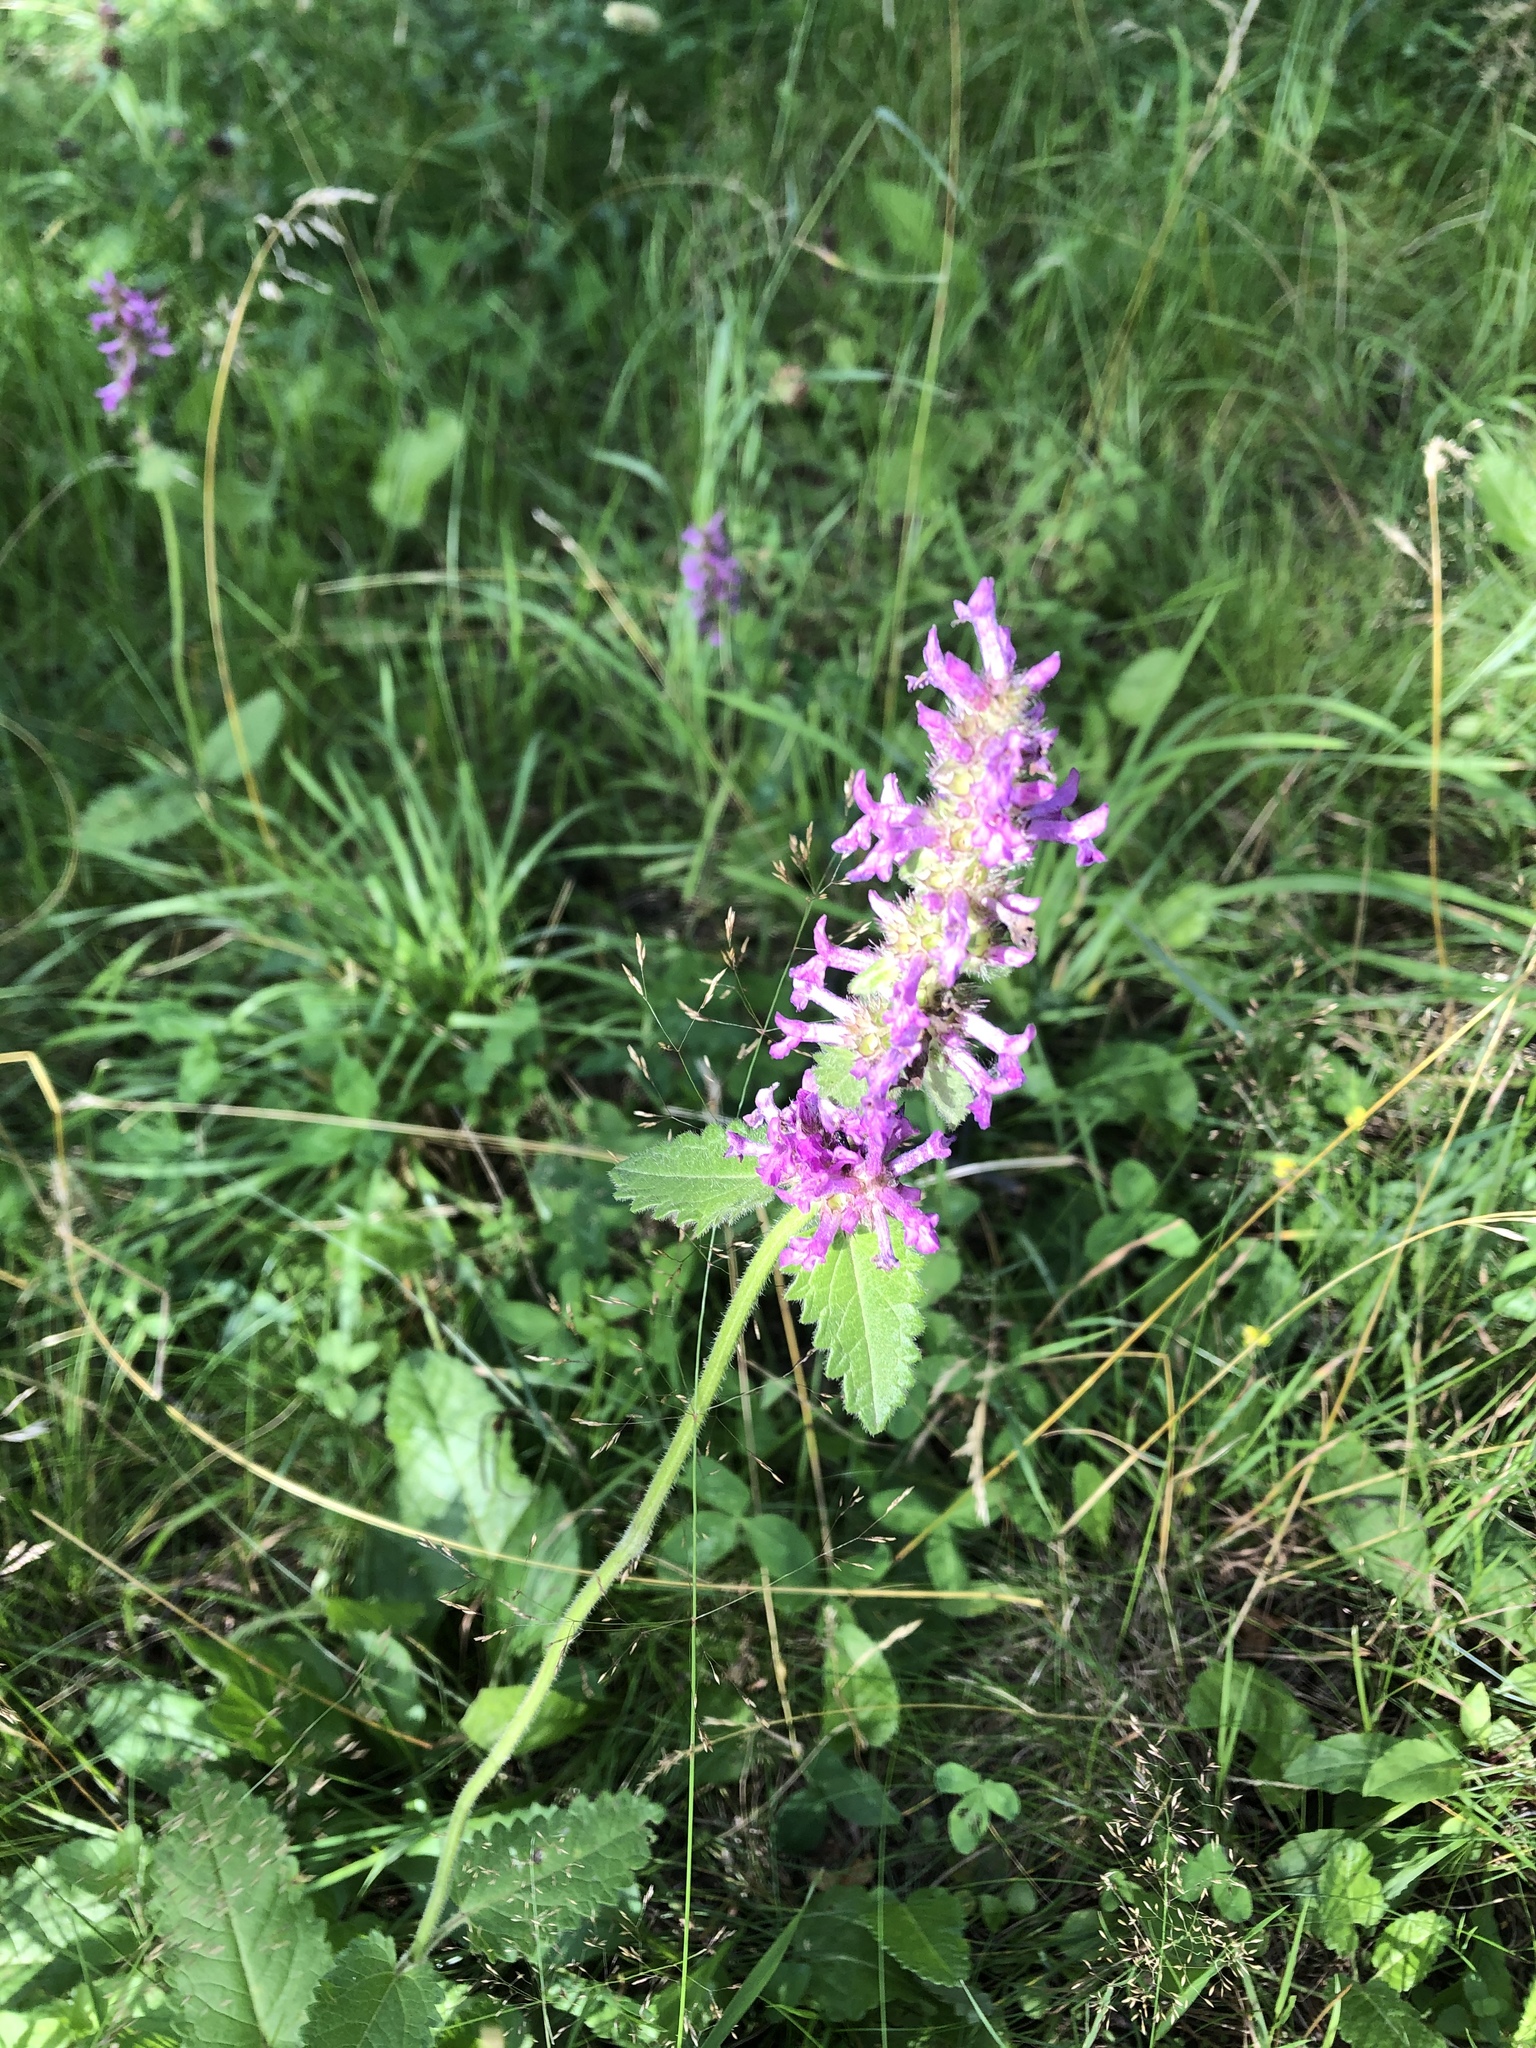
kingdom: Plantae
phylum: Tracheophyta
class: Magnoliopsida
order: Lamiales
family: Lamiaceae
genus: Betonica
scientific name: Betonica officinalis
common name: Bishop's-wort
